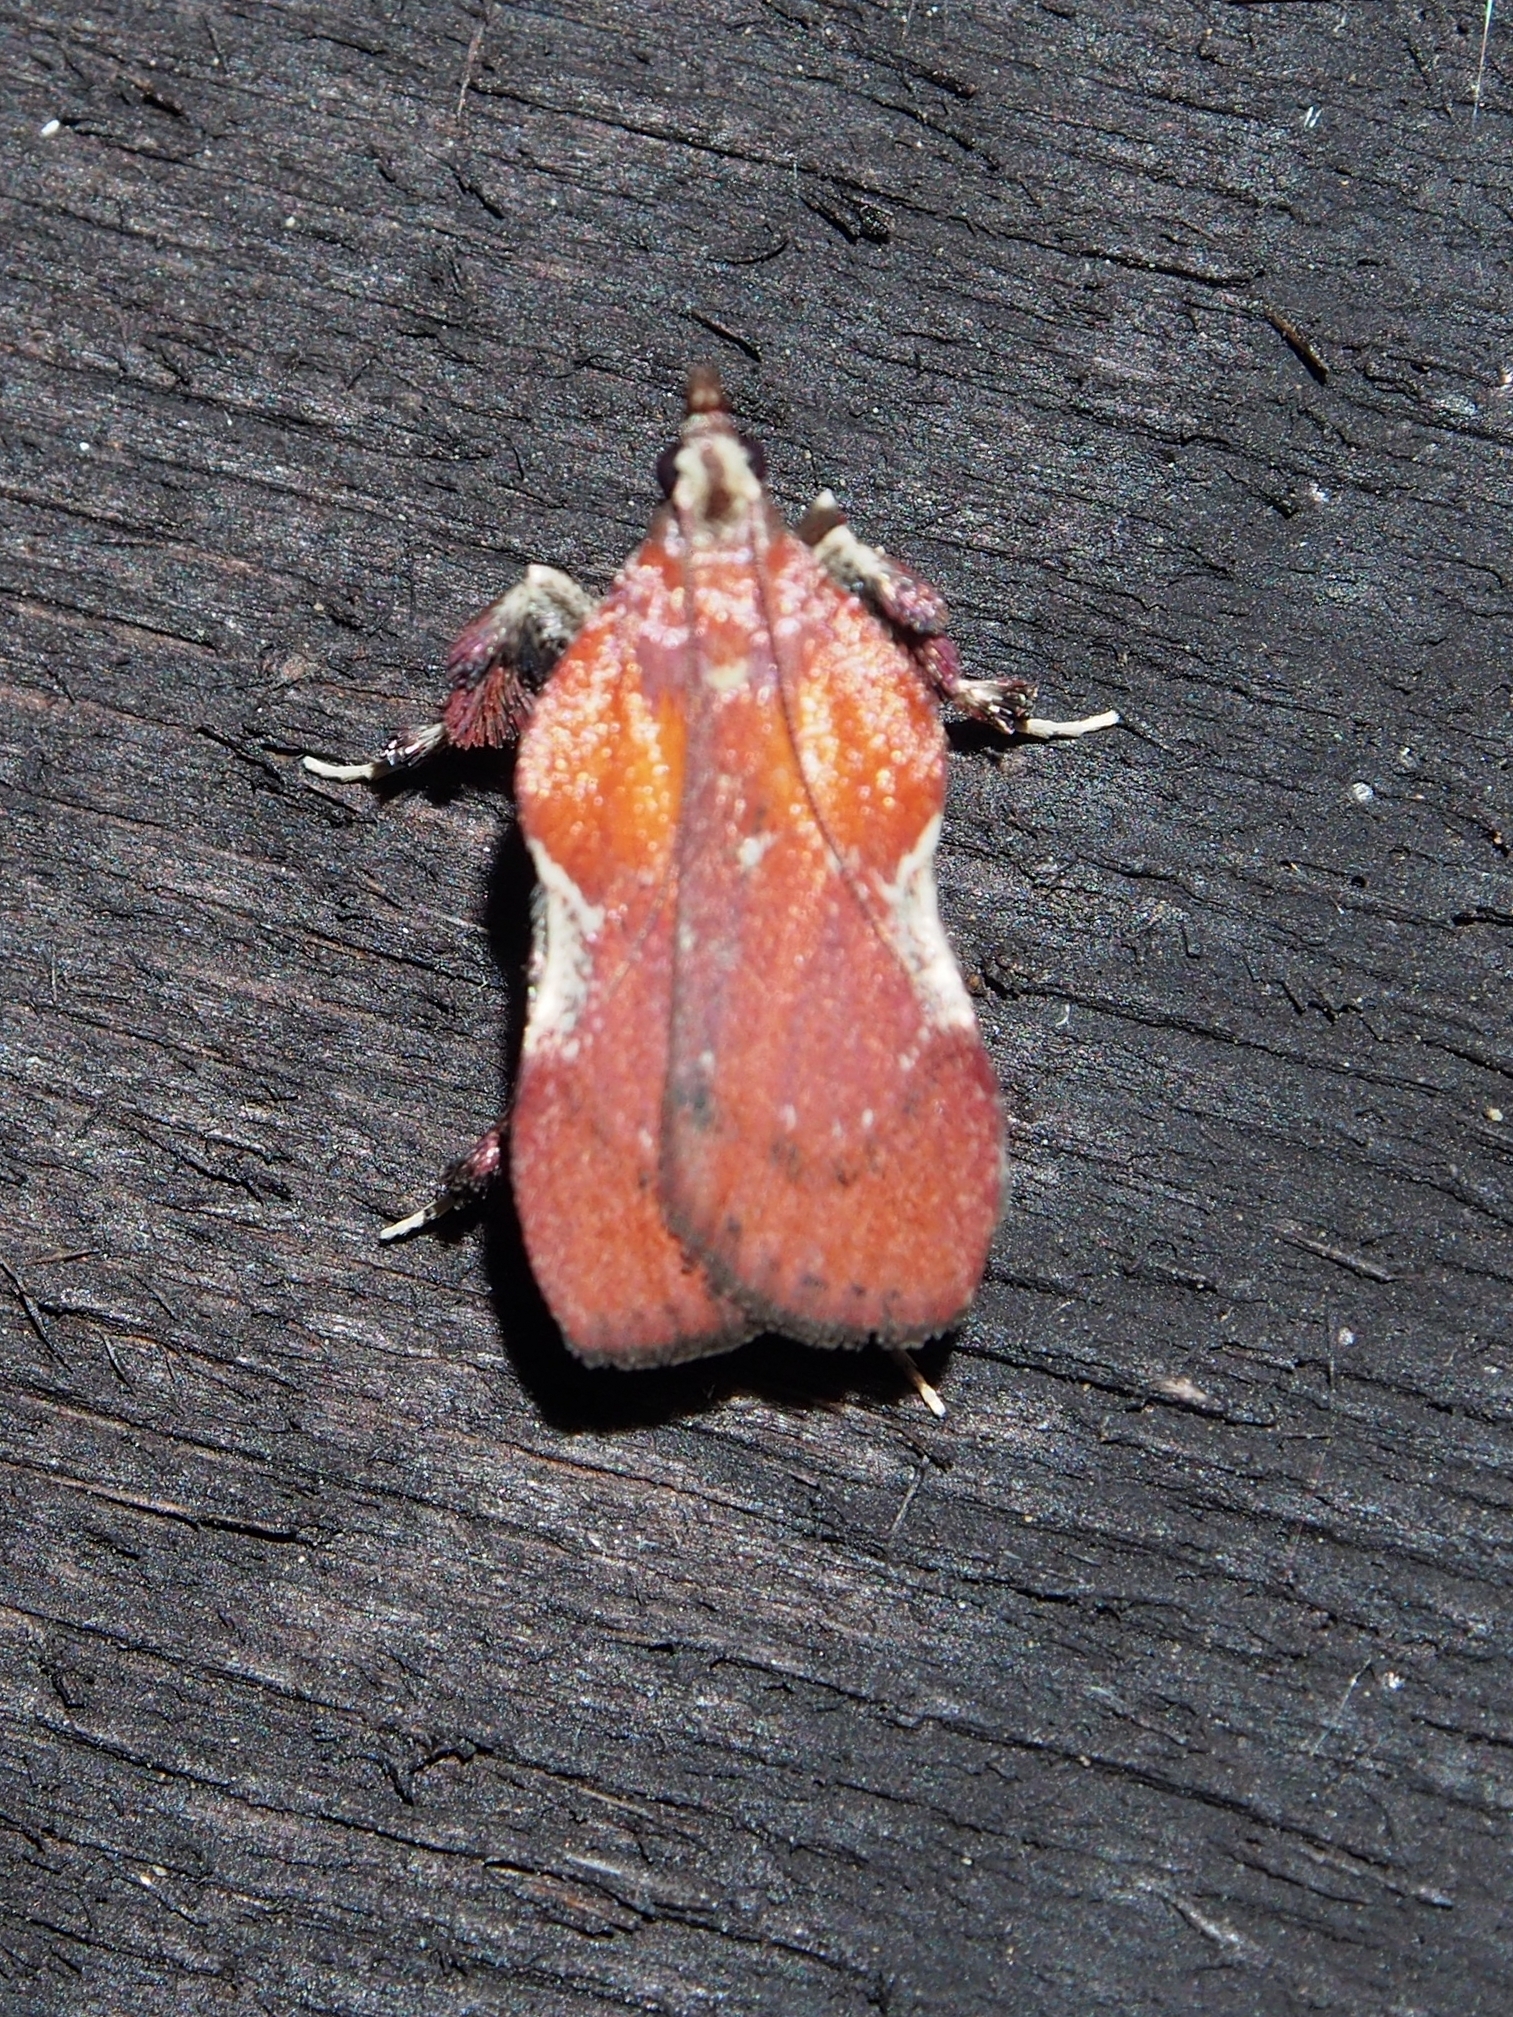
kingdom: Animalia
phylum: Arthropoda
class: Insecta
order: Lepidoptera
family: Pyralidae
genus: Galasa
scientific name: Galasa nigrinodis
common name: Boxwood leaftier moth
